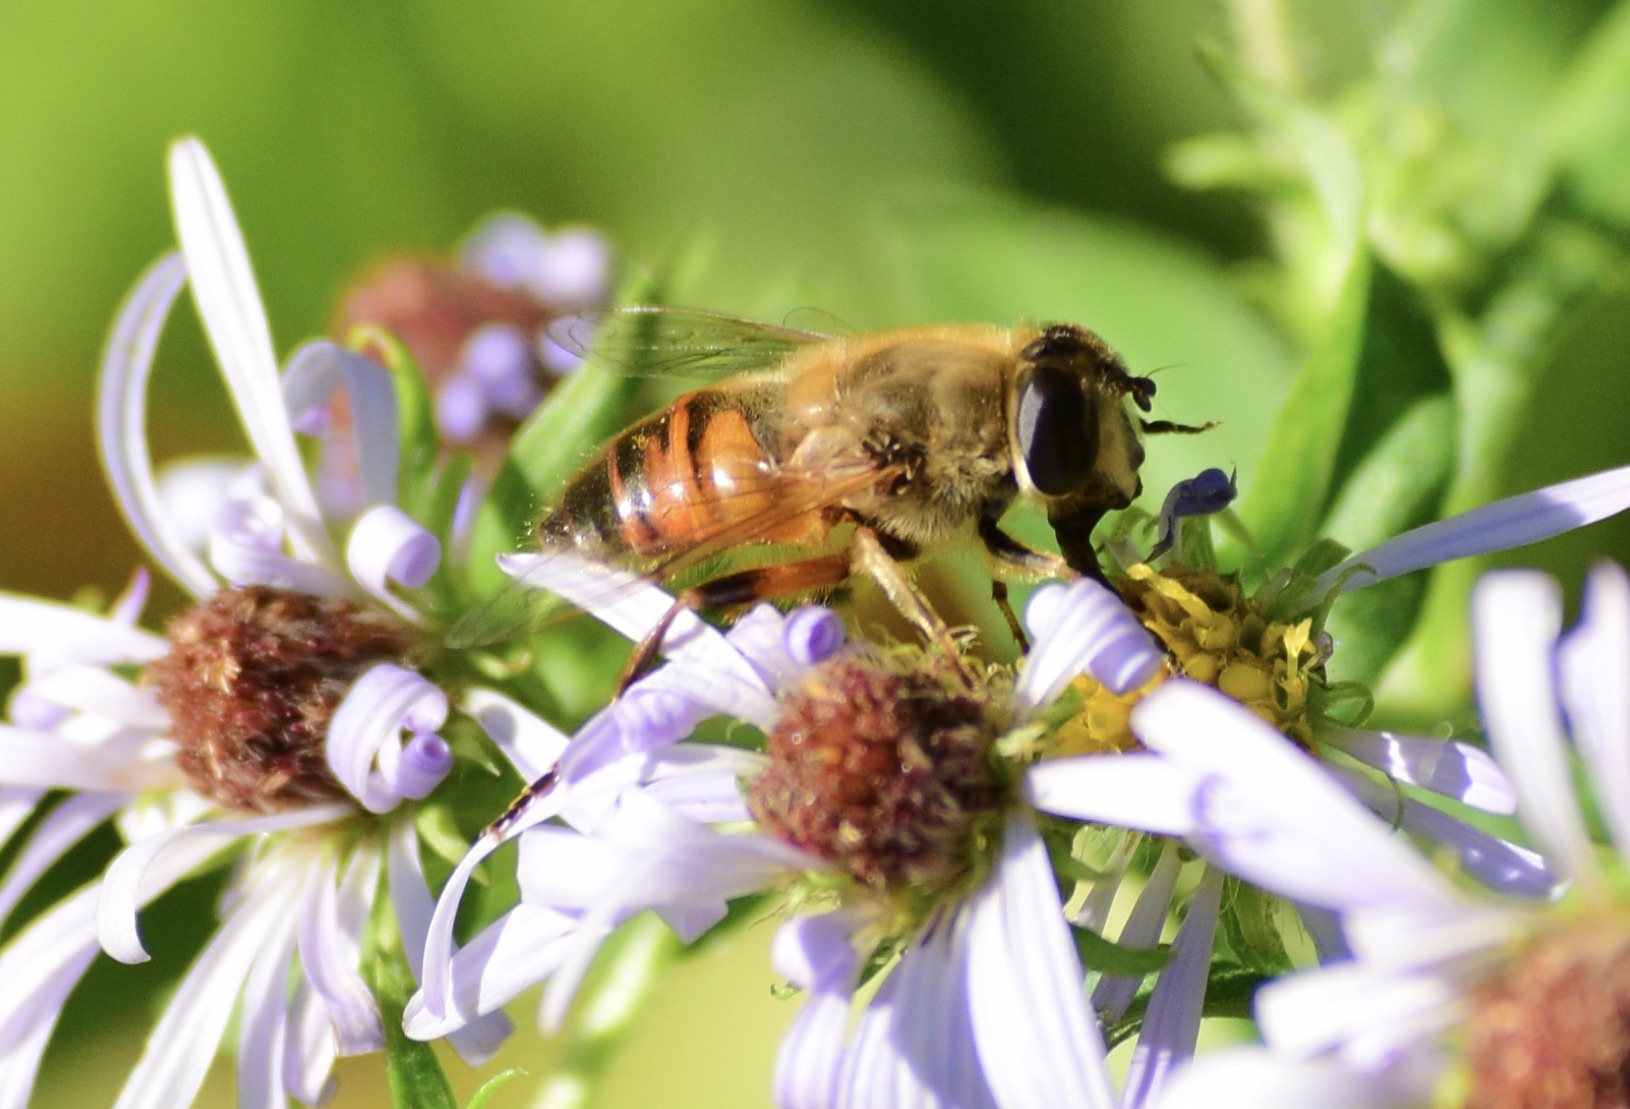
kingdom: Animalia
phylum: Arthropoda
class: Insecta
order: Diptera
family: Syrphidae
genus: Eristalis
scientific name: Eristalis tenax
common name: Drone fly
